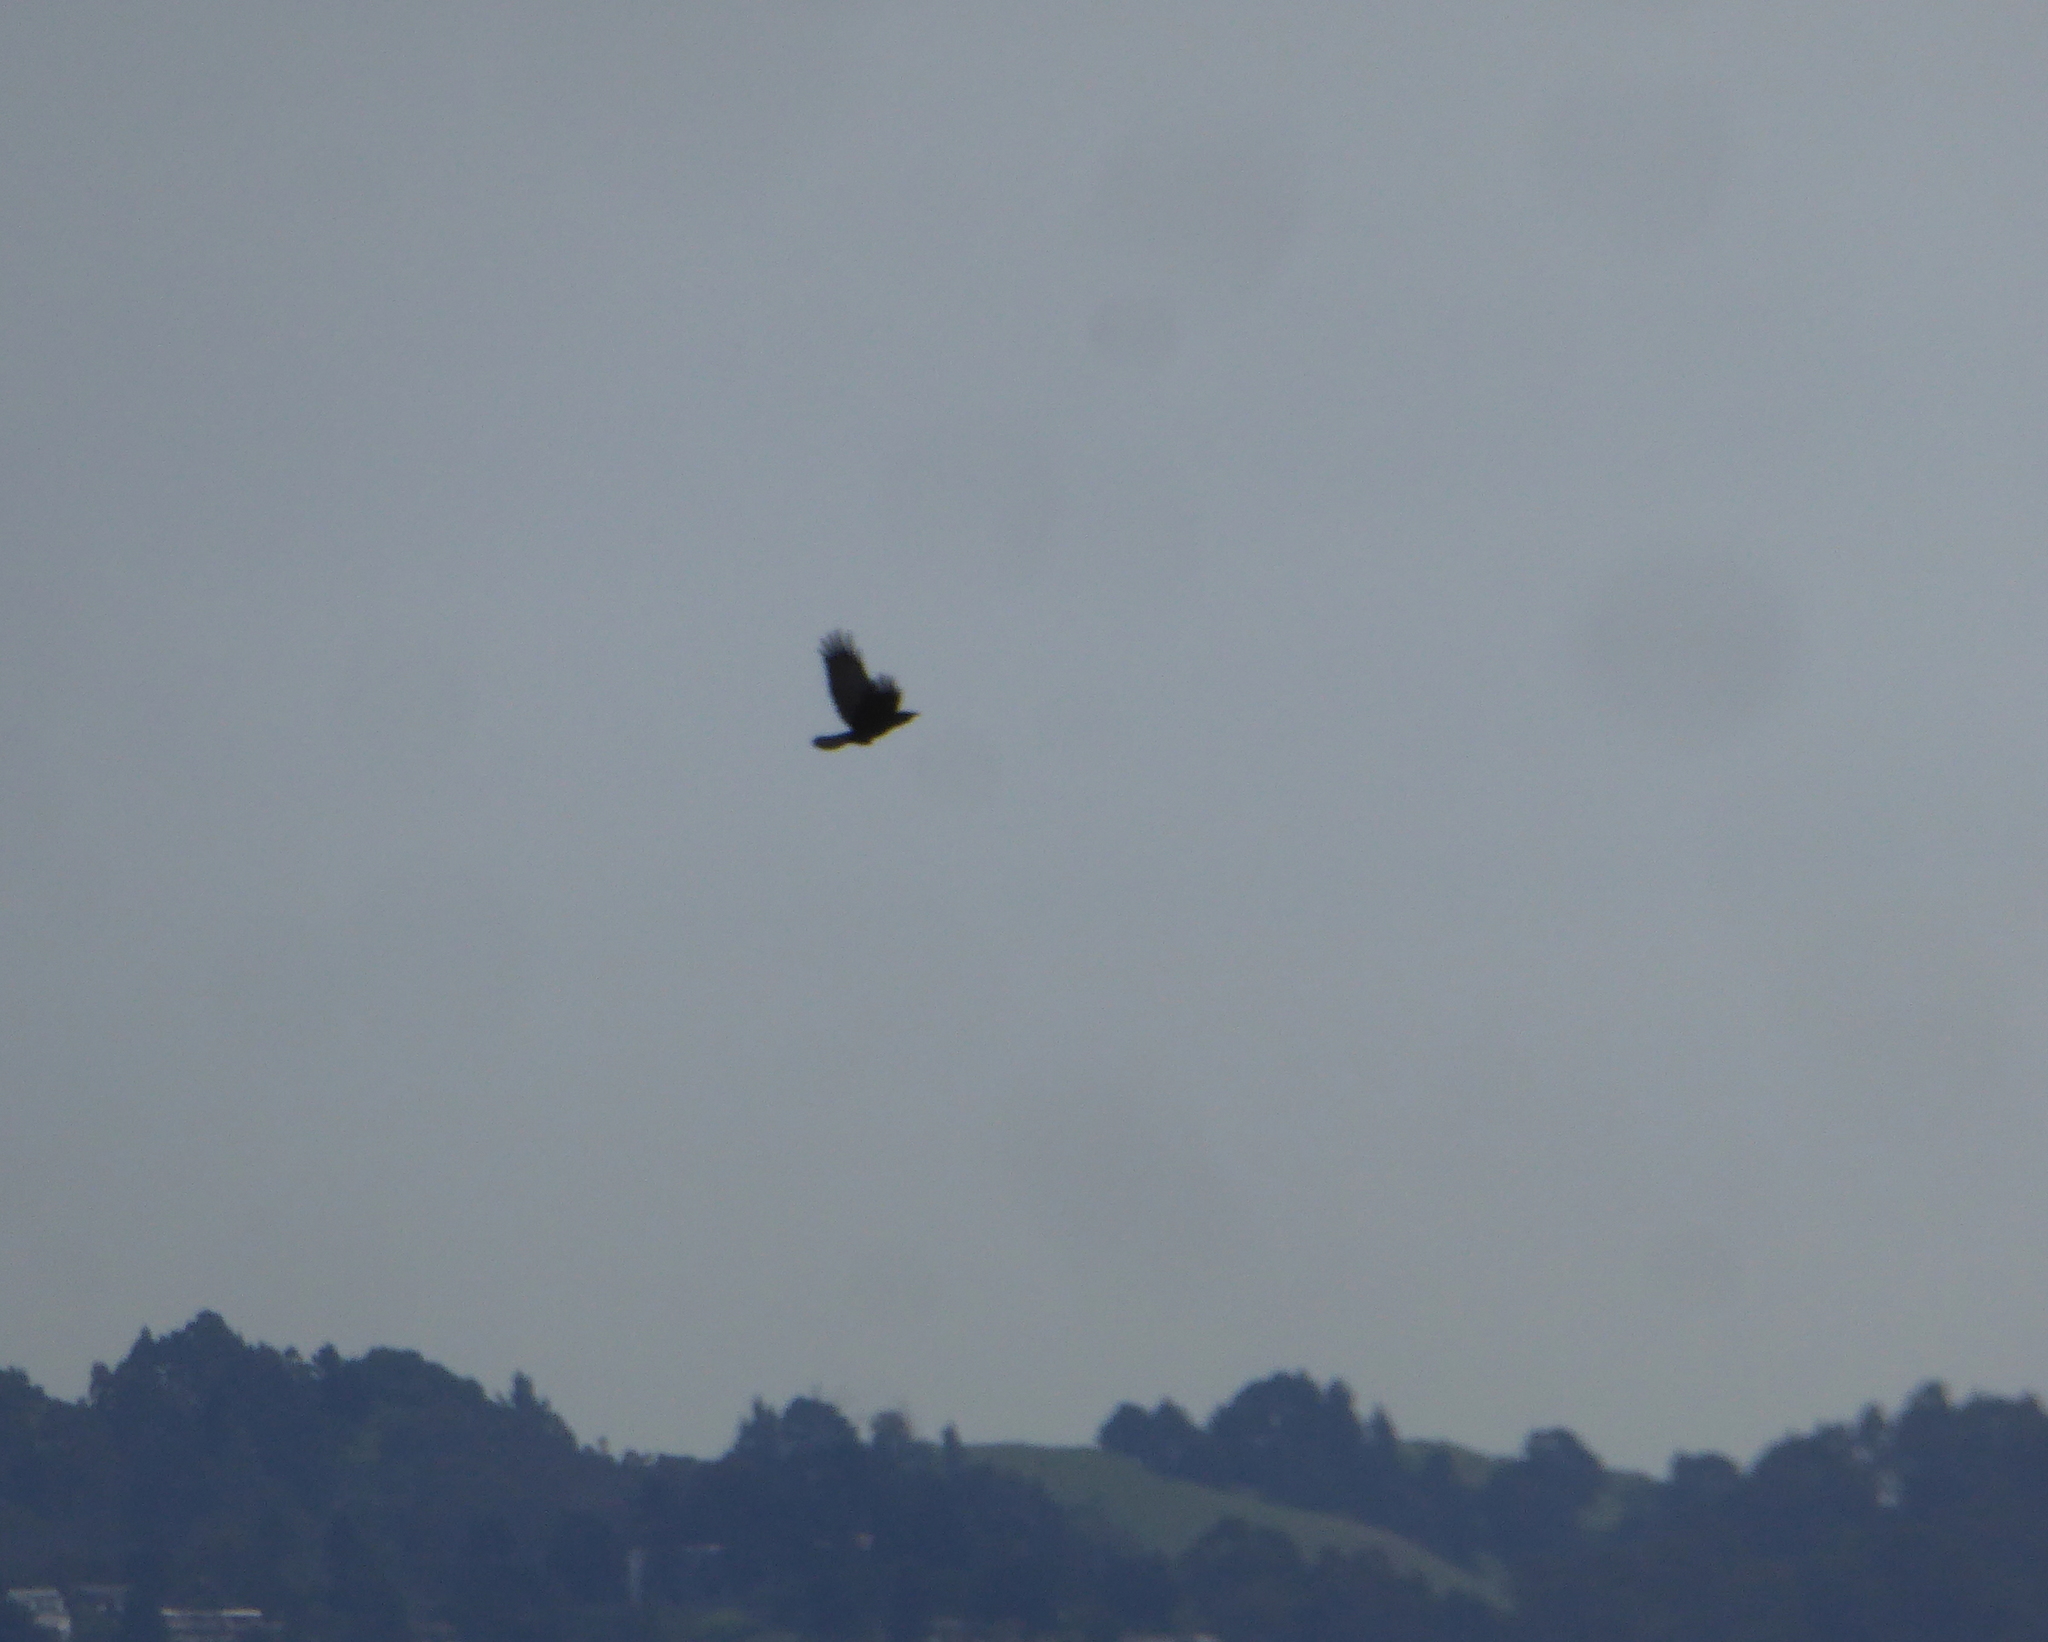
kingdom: Animalia
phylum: Chordata
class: Aves
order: Passeriformes
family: Corvidae
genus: Corvus
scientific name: Corvus brachyrhynchos
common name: American crow
